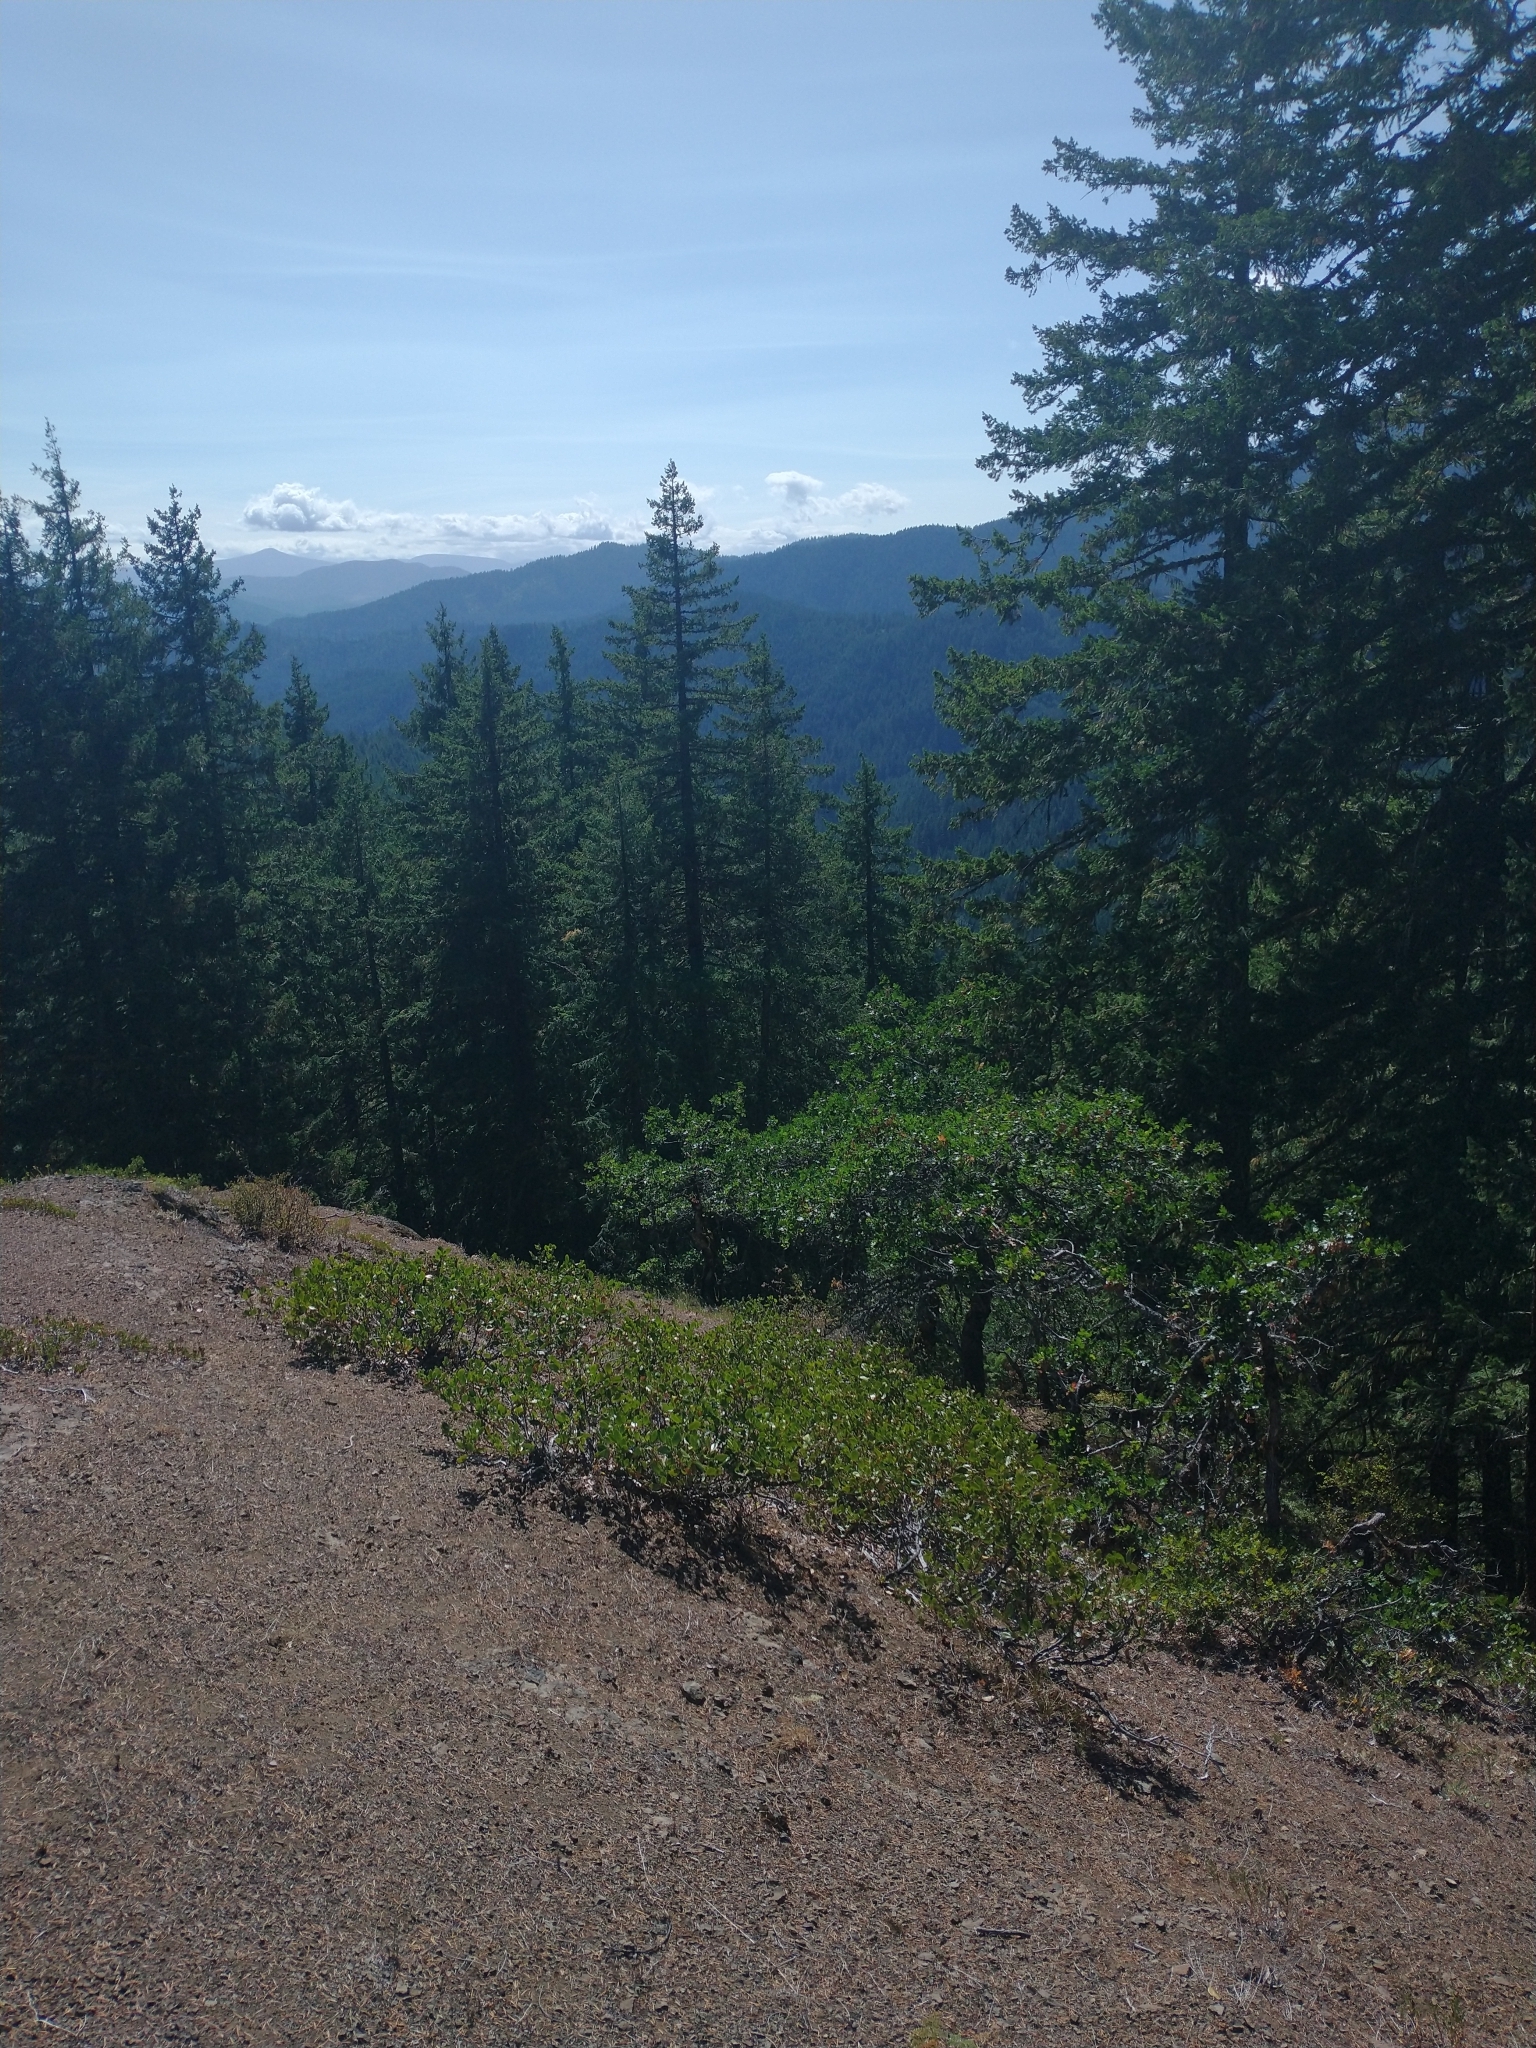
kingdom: Plantae
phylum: Tracheophyta
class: Pinopsida
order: Pinales
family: Pinaceae
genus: Pseudotsuga
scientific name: Pseudotsuga menziesii
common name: Douglas fir
